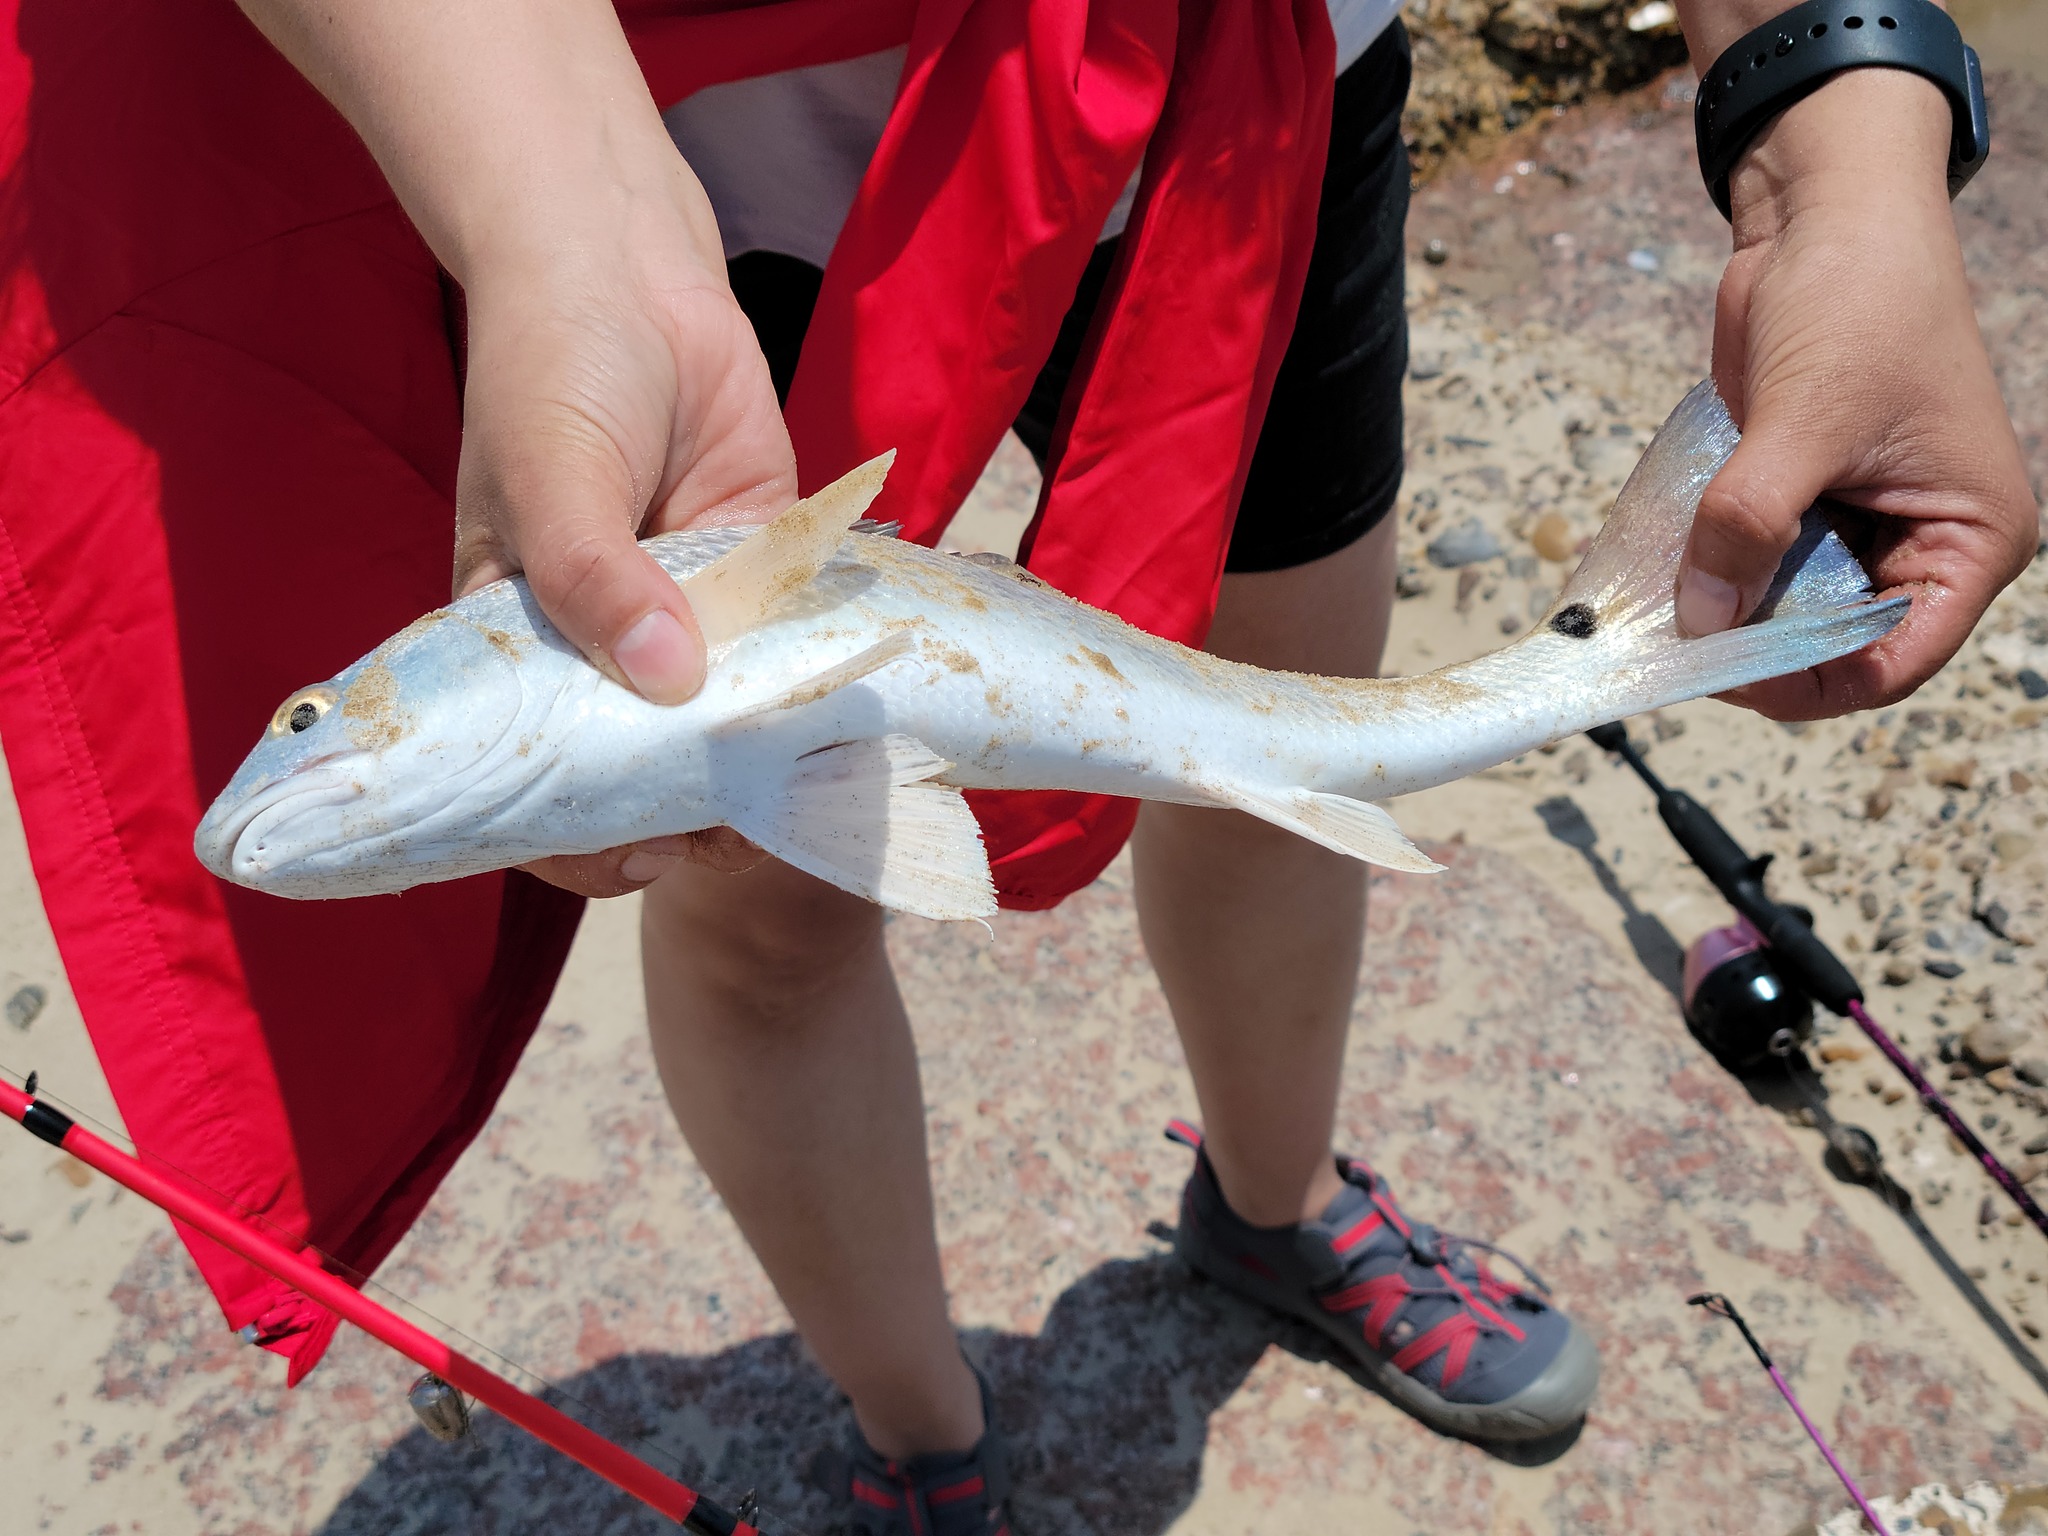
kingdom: Animalia
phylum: Chordata
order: Perciformes
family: Sciaenidae
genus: Sciaenops
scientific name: Sciaenops ocellatus
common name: Red drum
